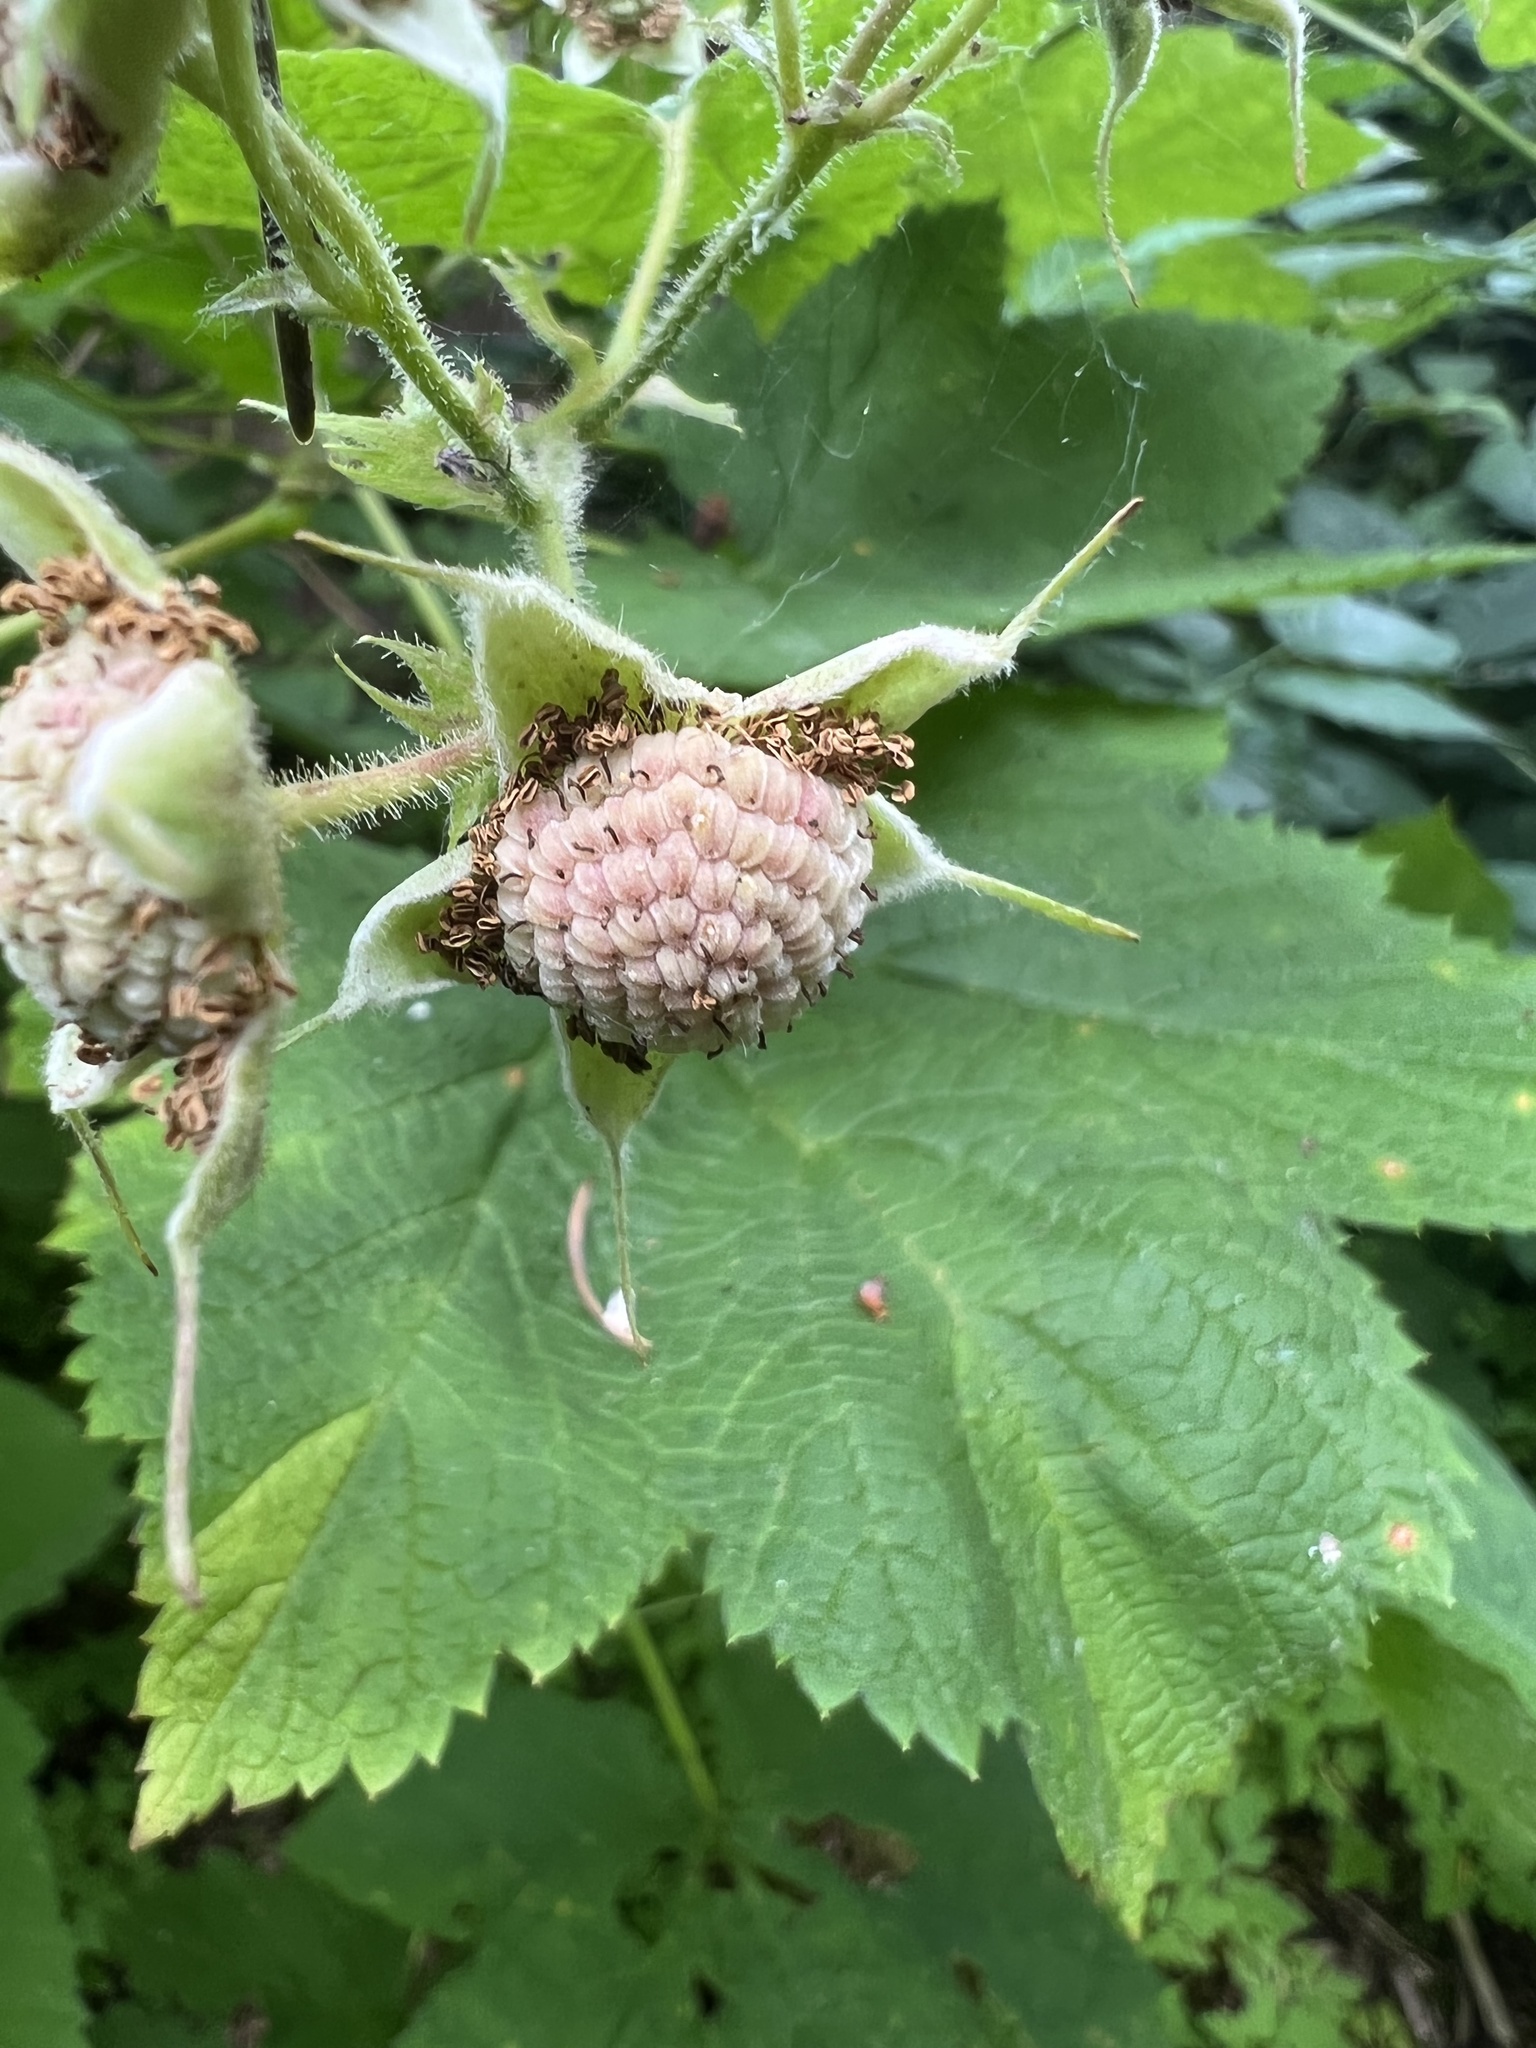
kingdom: Plantae
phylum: Tracheophyta
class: Magnoliopsida
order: Rosales
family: Rosaceae
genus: Rubus
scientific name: Rubus parviflorus
